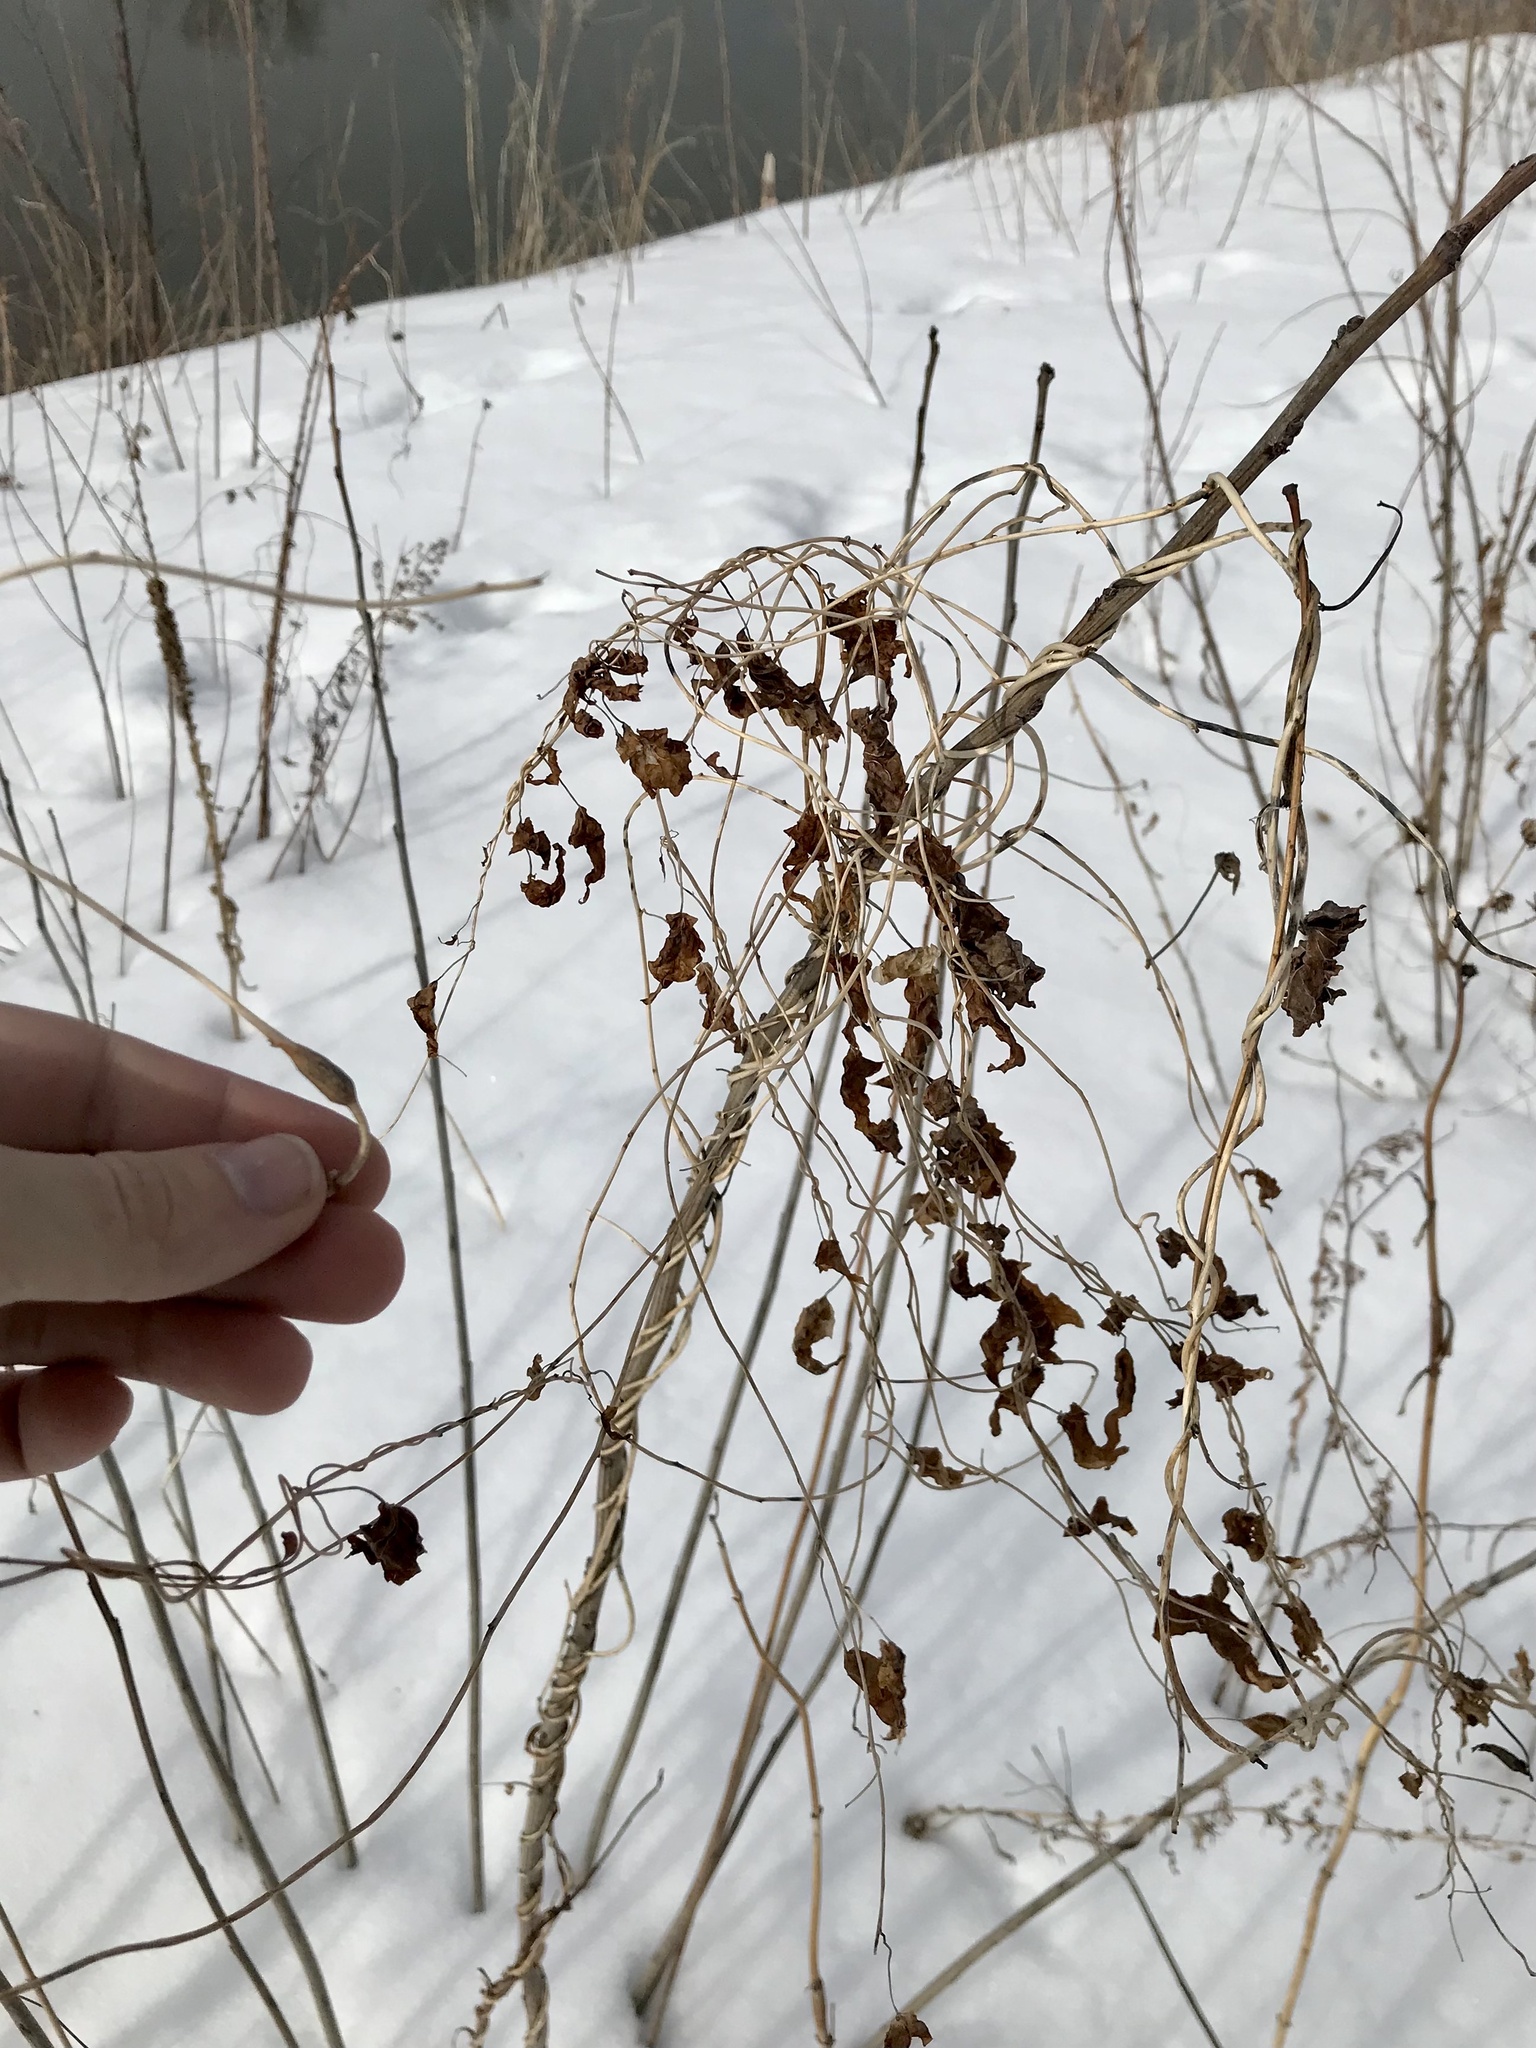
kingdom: Animalia
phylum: Arthropoda
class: Insecta
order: Diptera
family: Cecidomyiidae
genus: Neolasioptera
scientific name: Neolasioptera convolvuli
